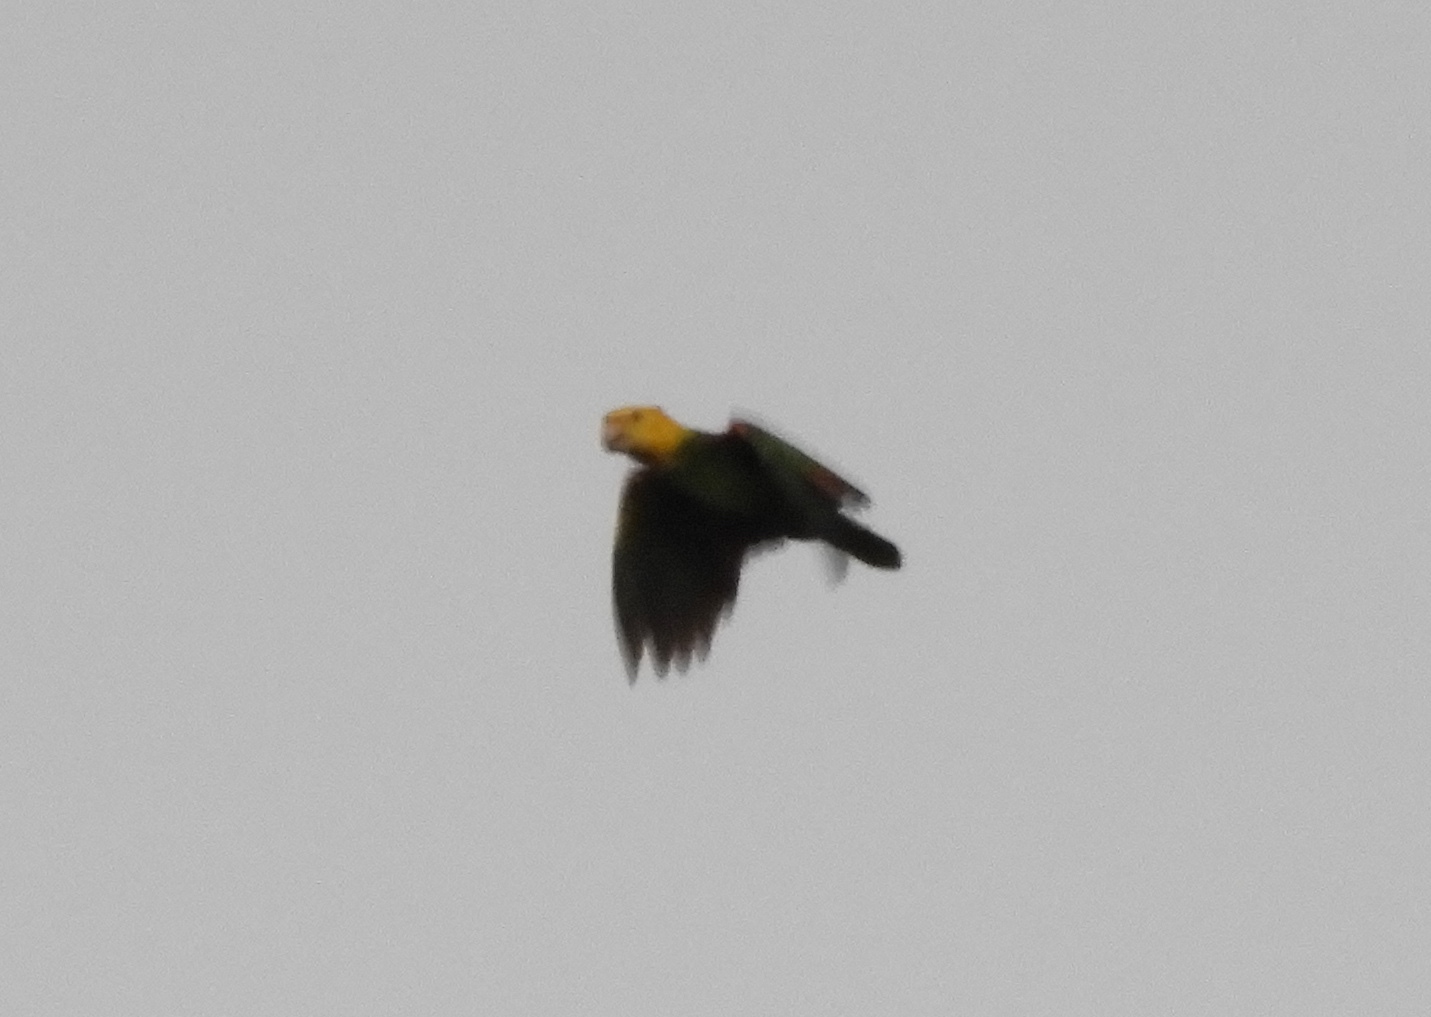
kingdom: Animalia
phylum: Chordata
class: Aves
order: Psittaciformes
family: Psittacidae
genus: Amazona
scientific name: Amazona oratrix
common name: Yellow-headed amazon
